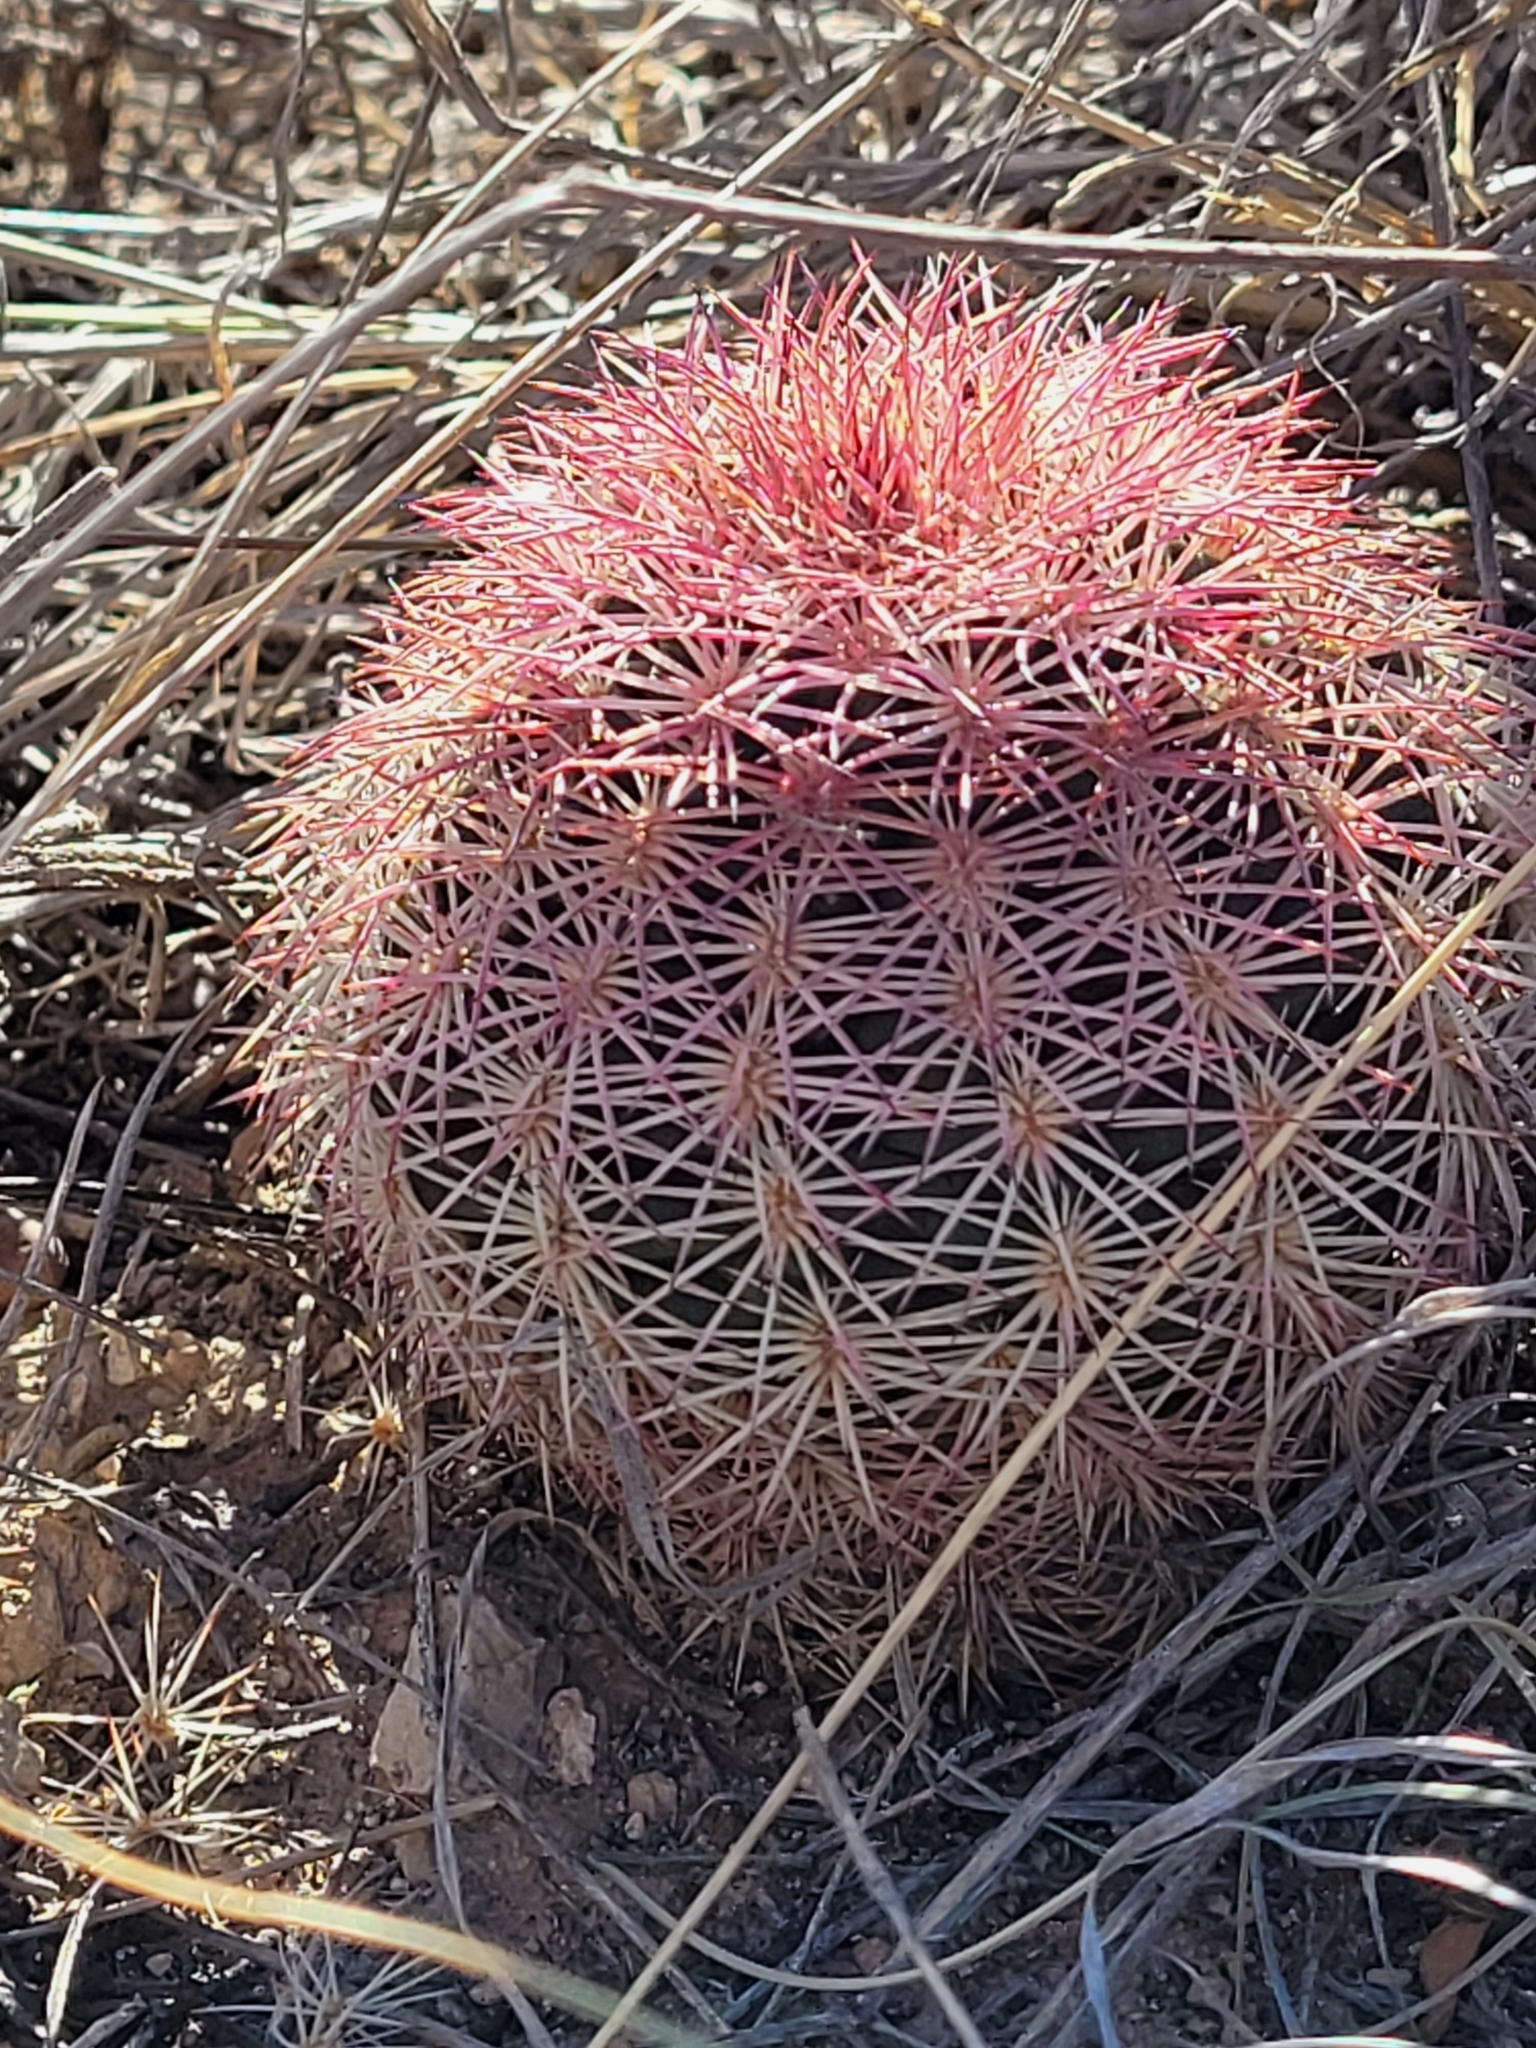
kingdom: Plantae
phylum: Tracheophyta
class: Magnoliopsida
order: Caryophyllales
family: Cactaceae
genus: Echinocereus
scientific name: Echinocereus dasyacanthus
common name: Spiny hedgehog cactus
